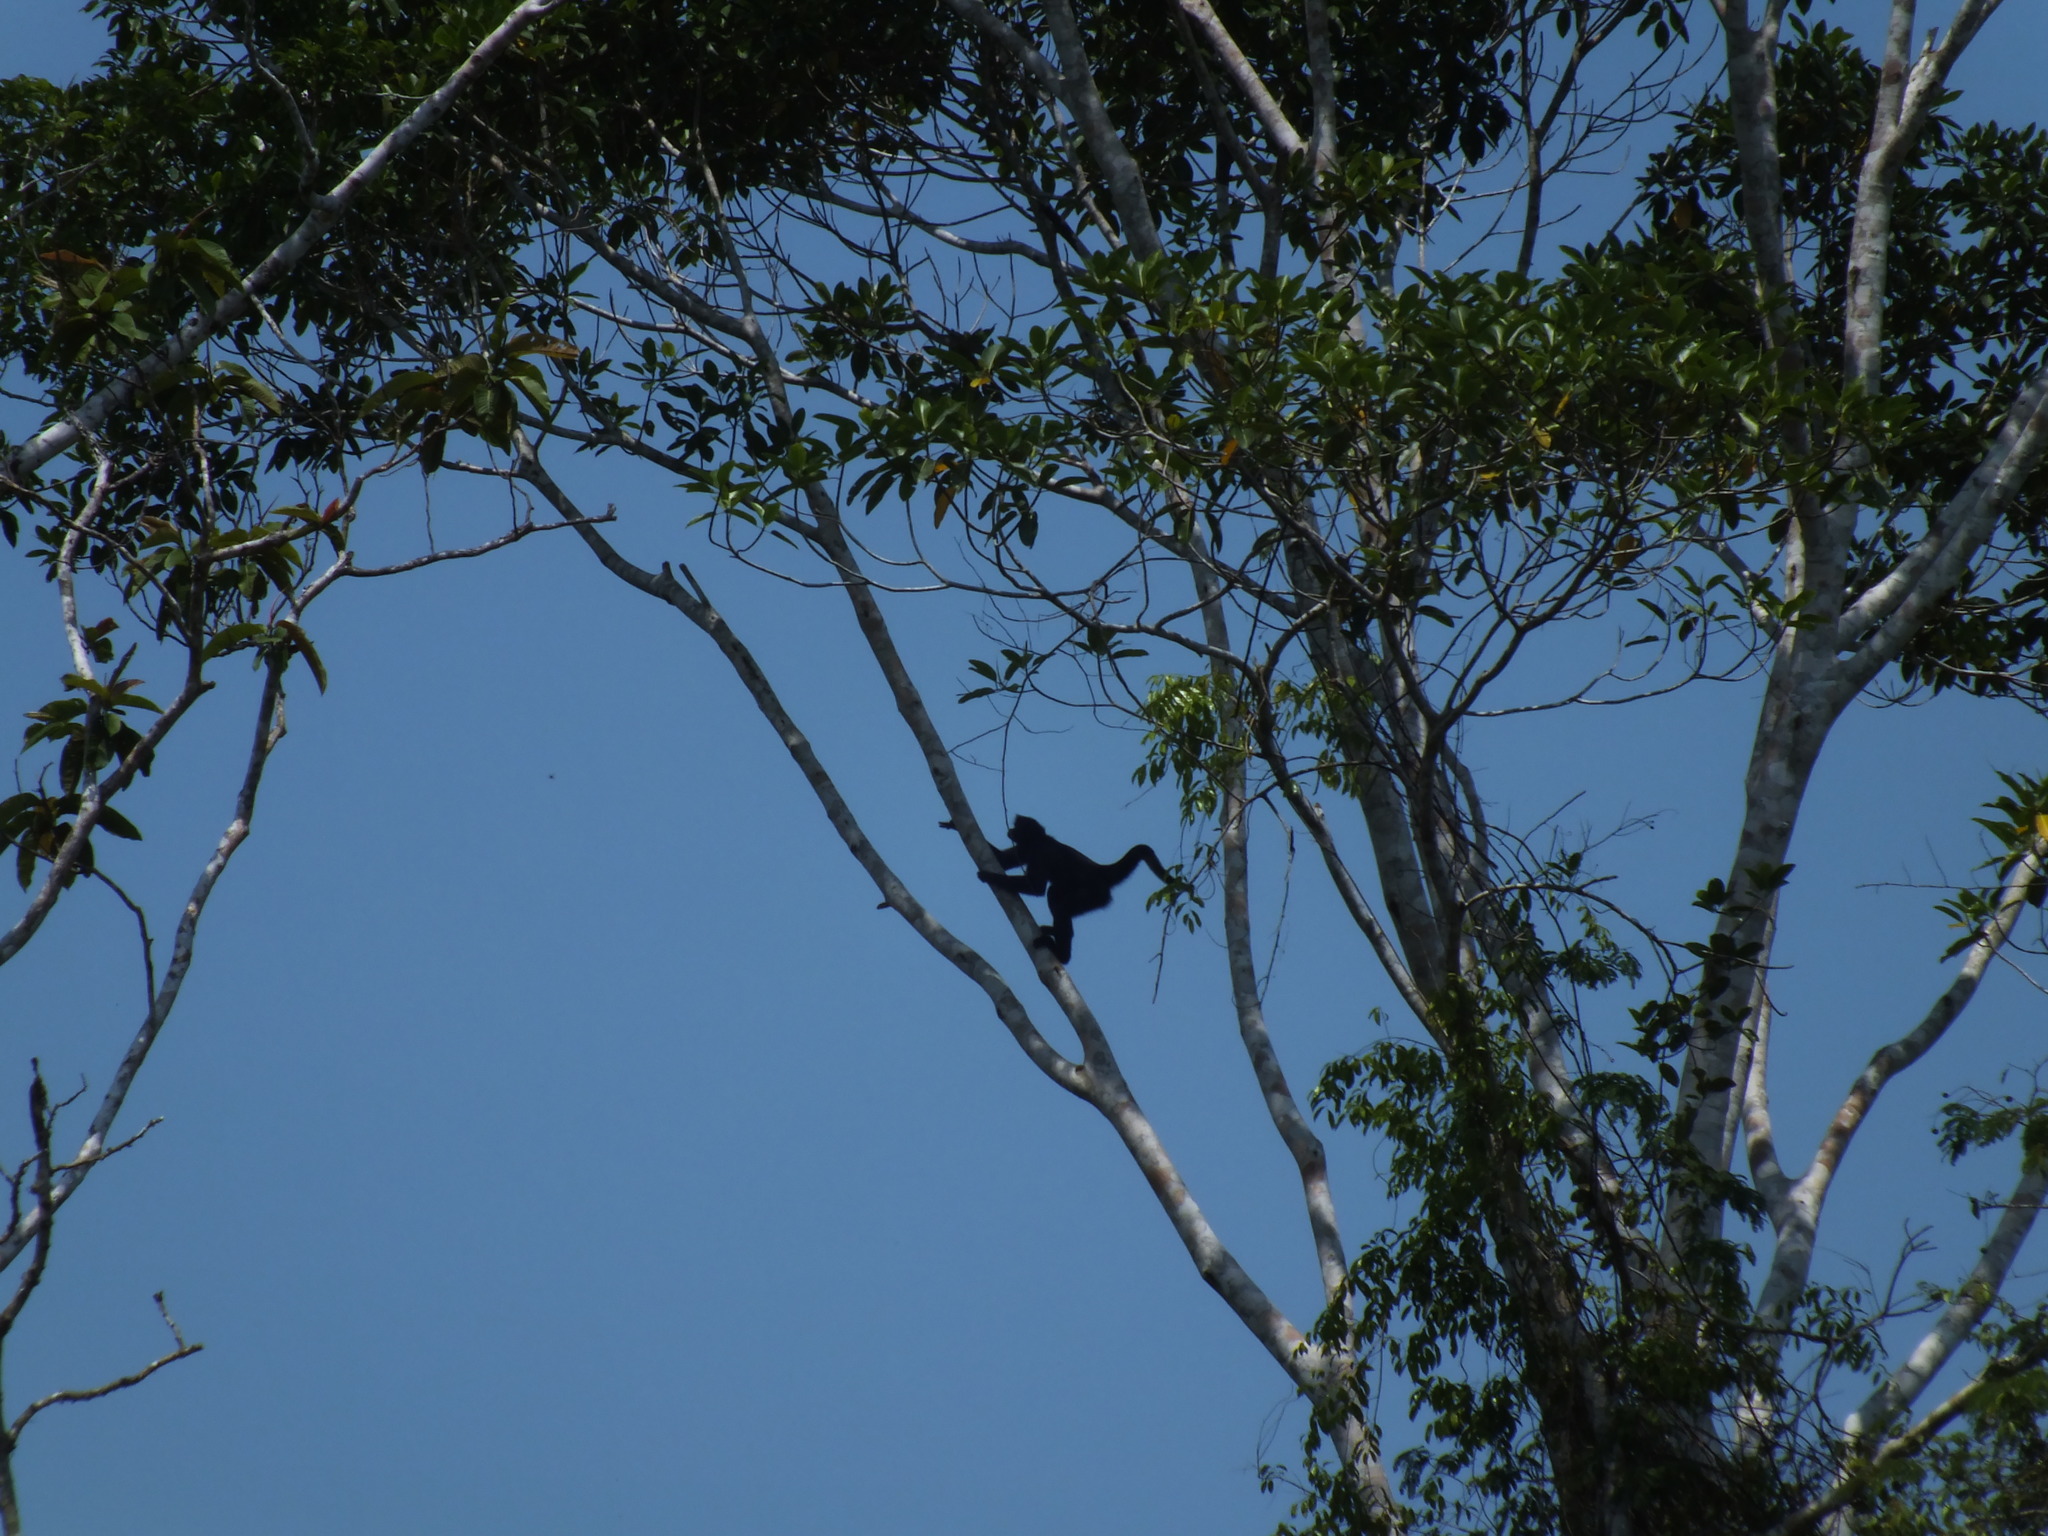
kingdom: Animalia
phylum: Chordata
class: Mammalia
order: Primates
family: Atelidae
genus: Ateles
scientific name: Ateles chamek
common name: Peruvian spider monkey
